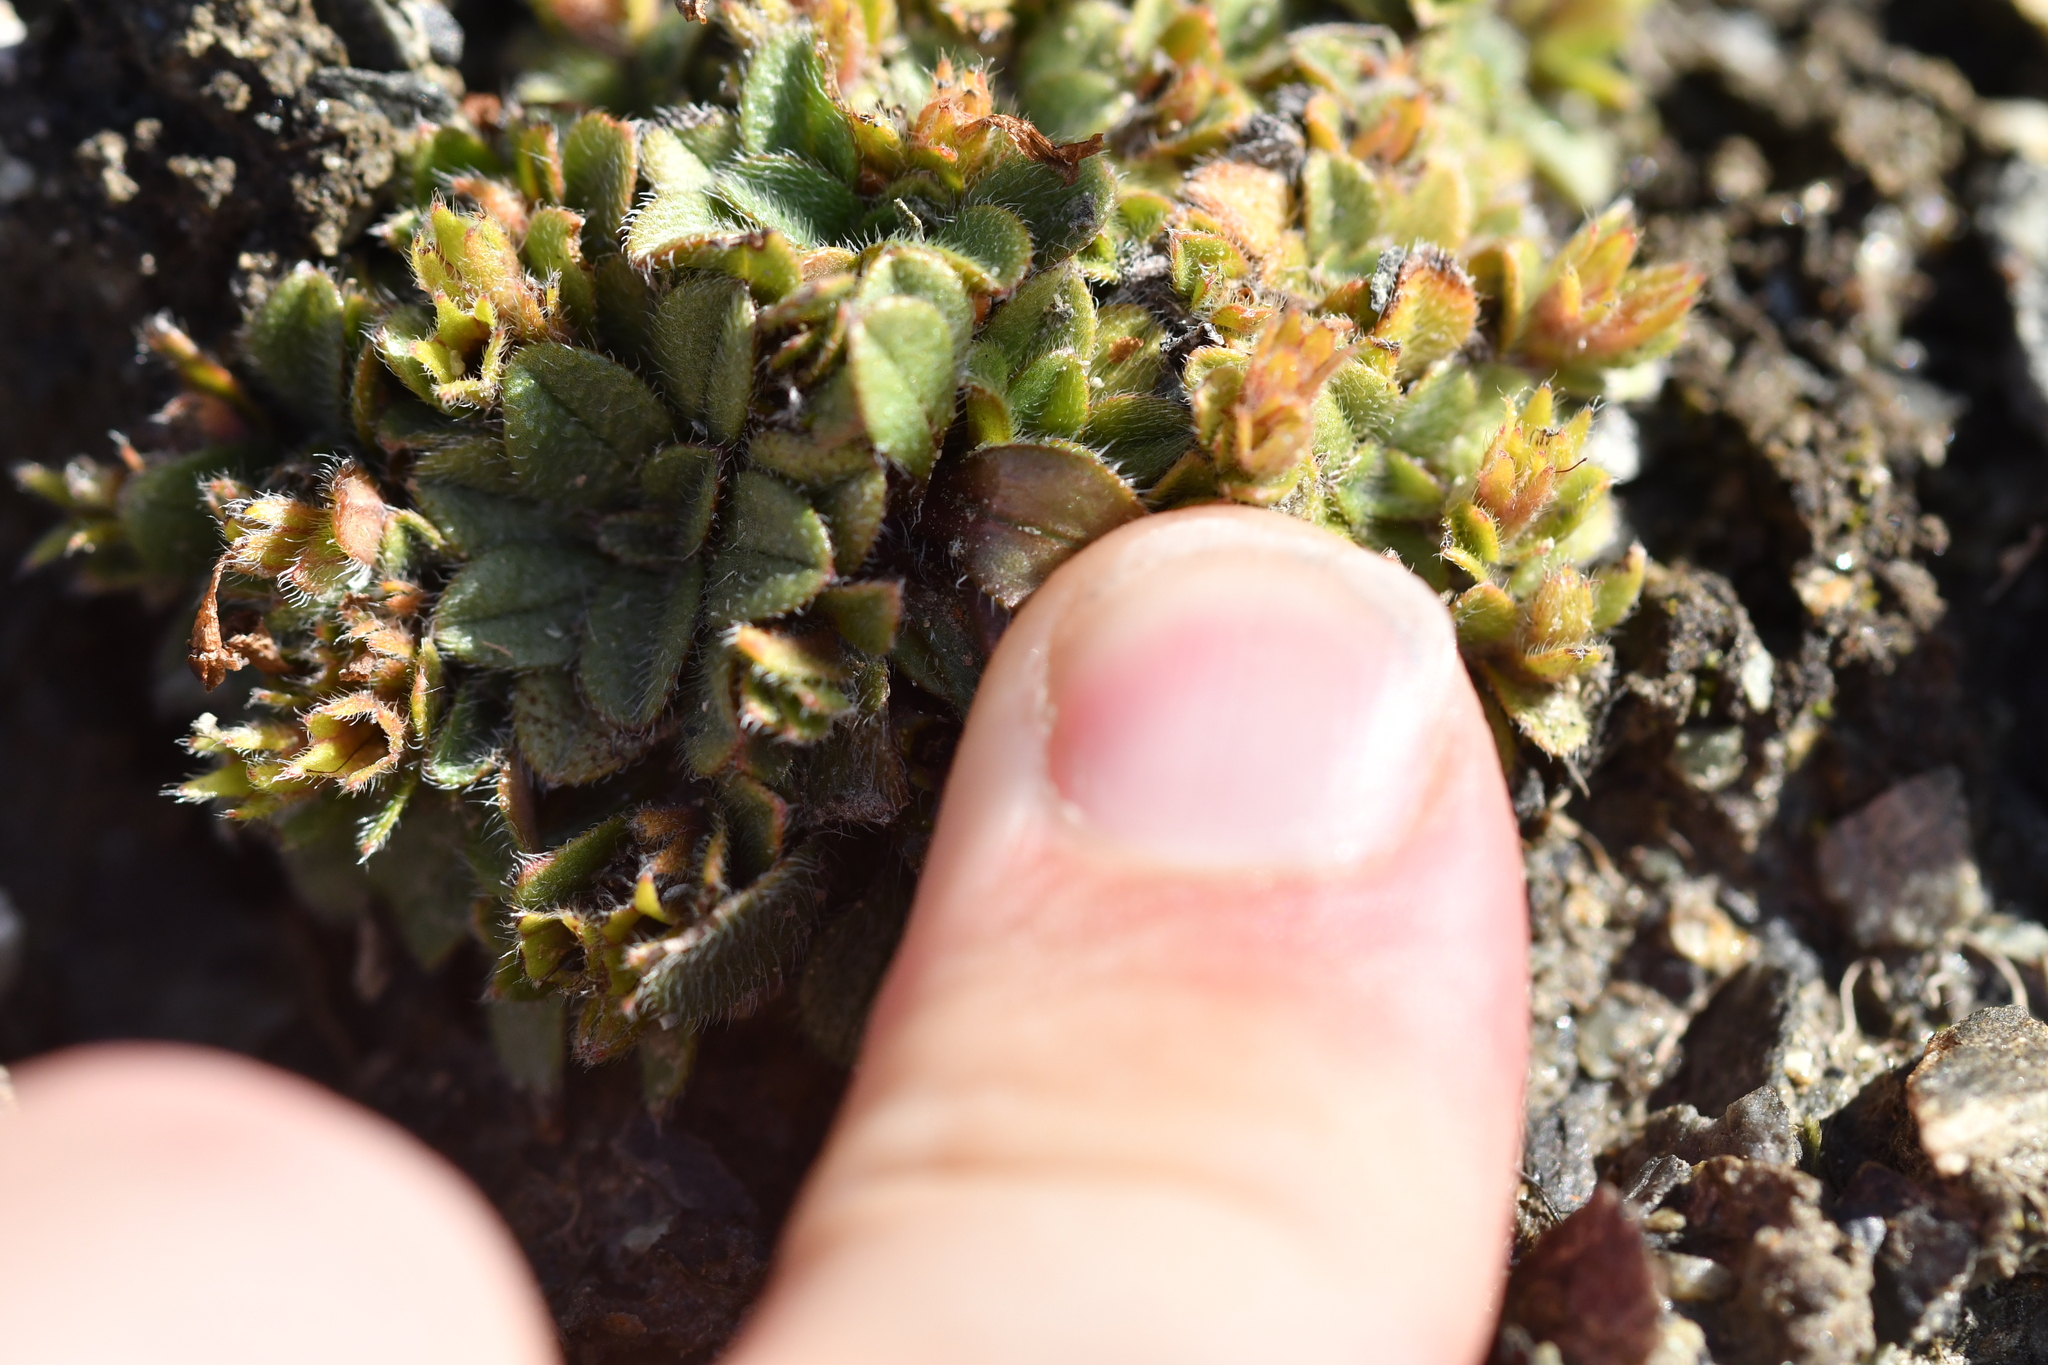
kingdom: Plantae
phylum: Tracheophyta
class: Magnoliopsida
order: Boraginales
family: Boraginaceae
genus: Myosotis
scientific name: Myosotis lyallii
